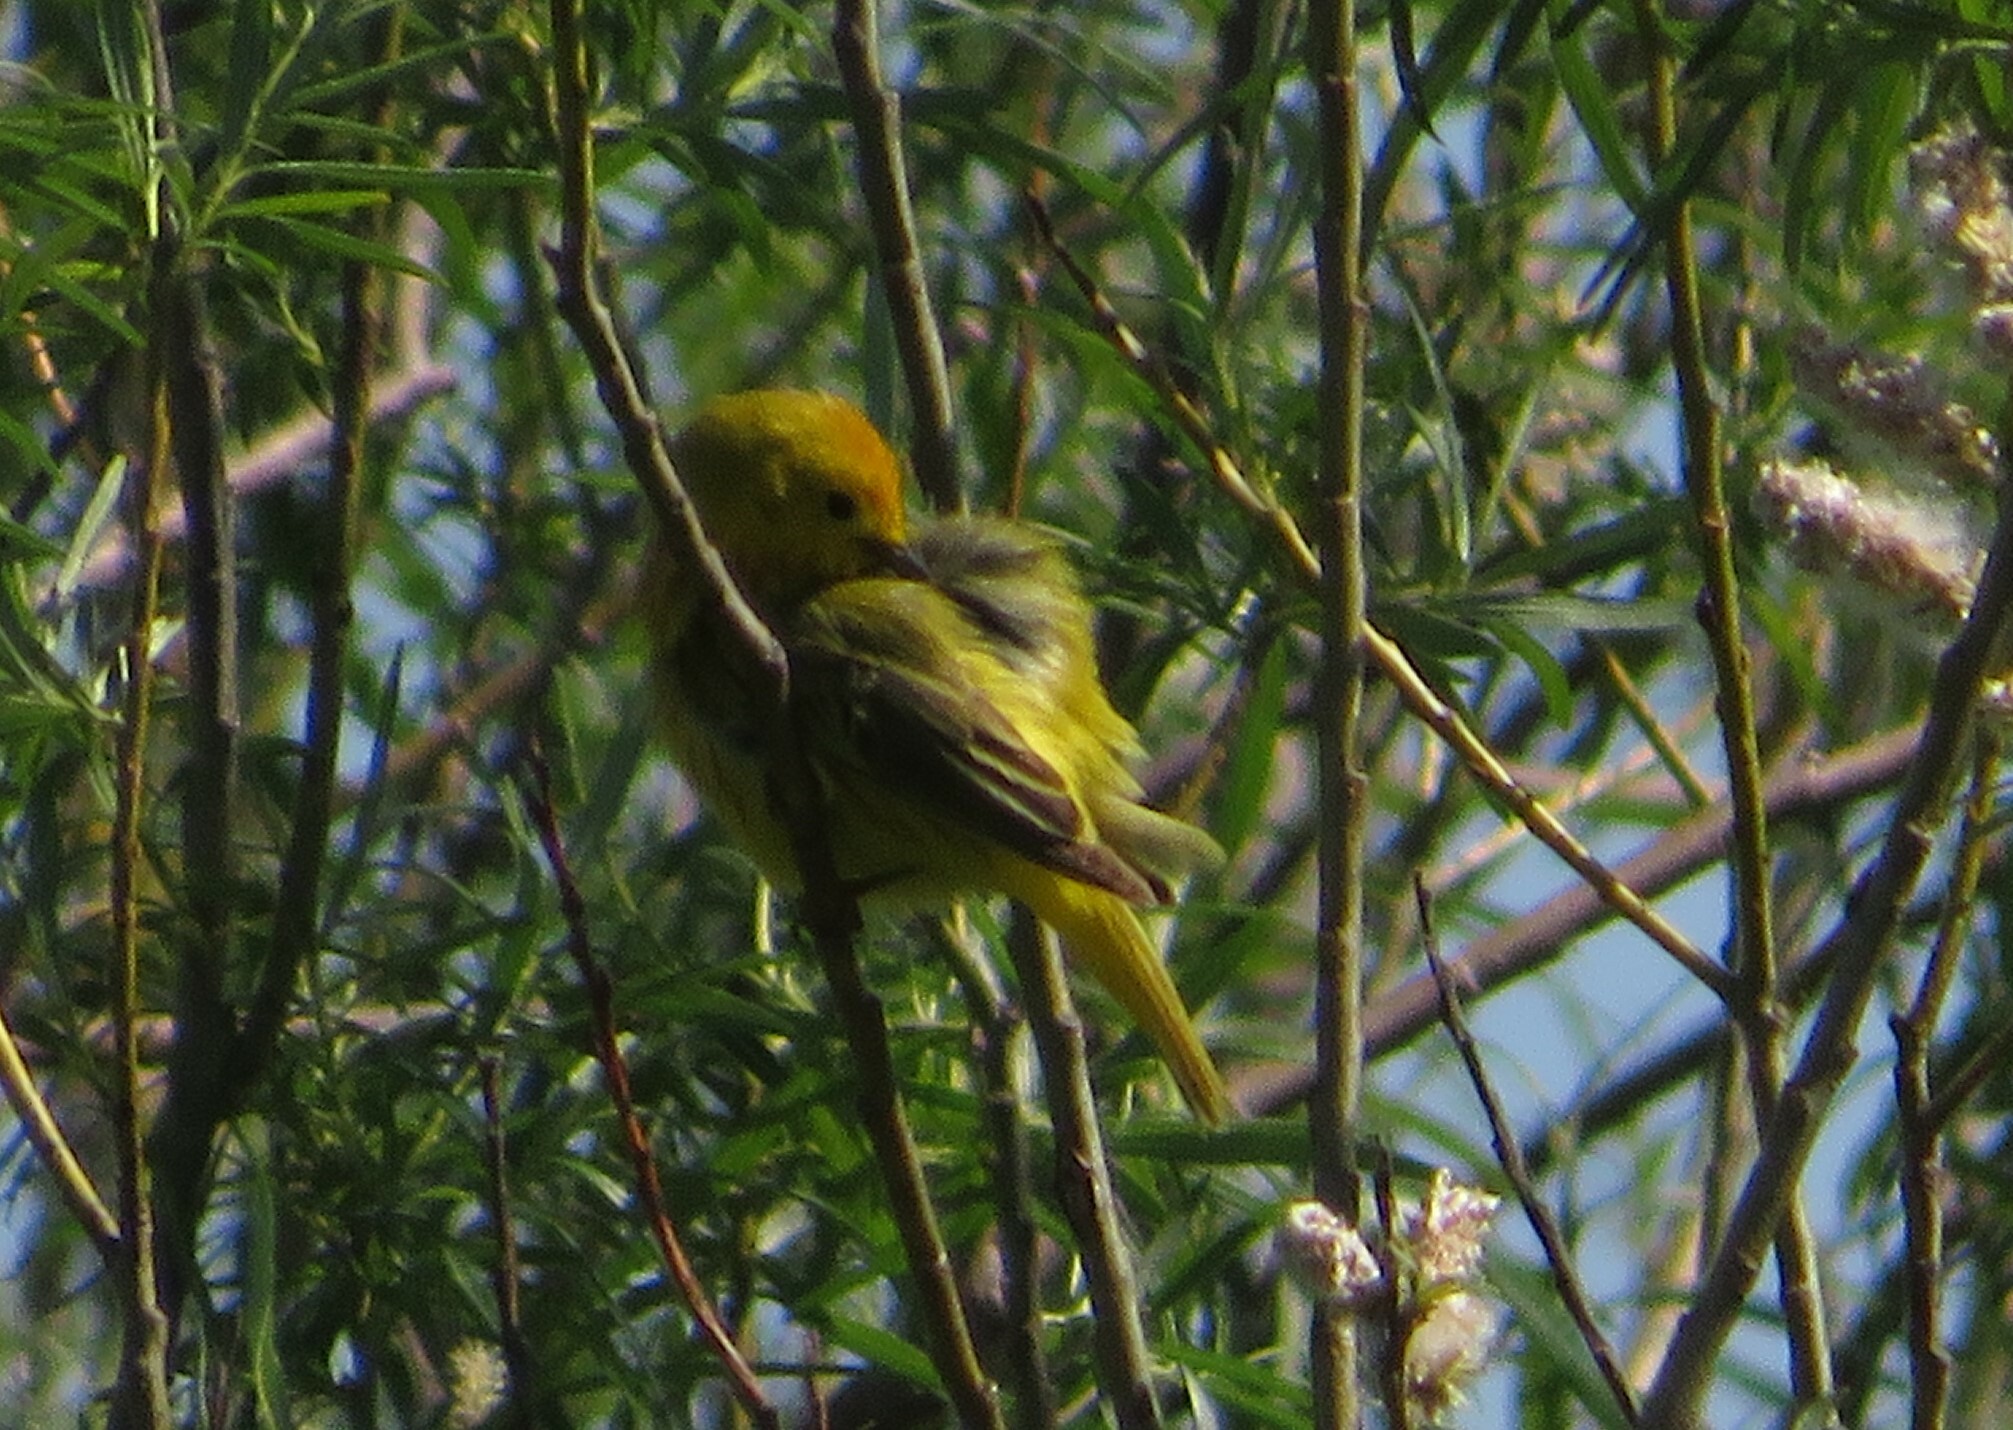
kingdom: Animalia
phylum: Chordata
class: Aves
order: Passeriformes
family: Parulidae
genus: Setophaga
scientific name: Setophaga petechia
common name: Yellow warbler
